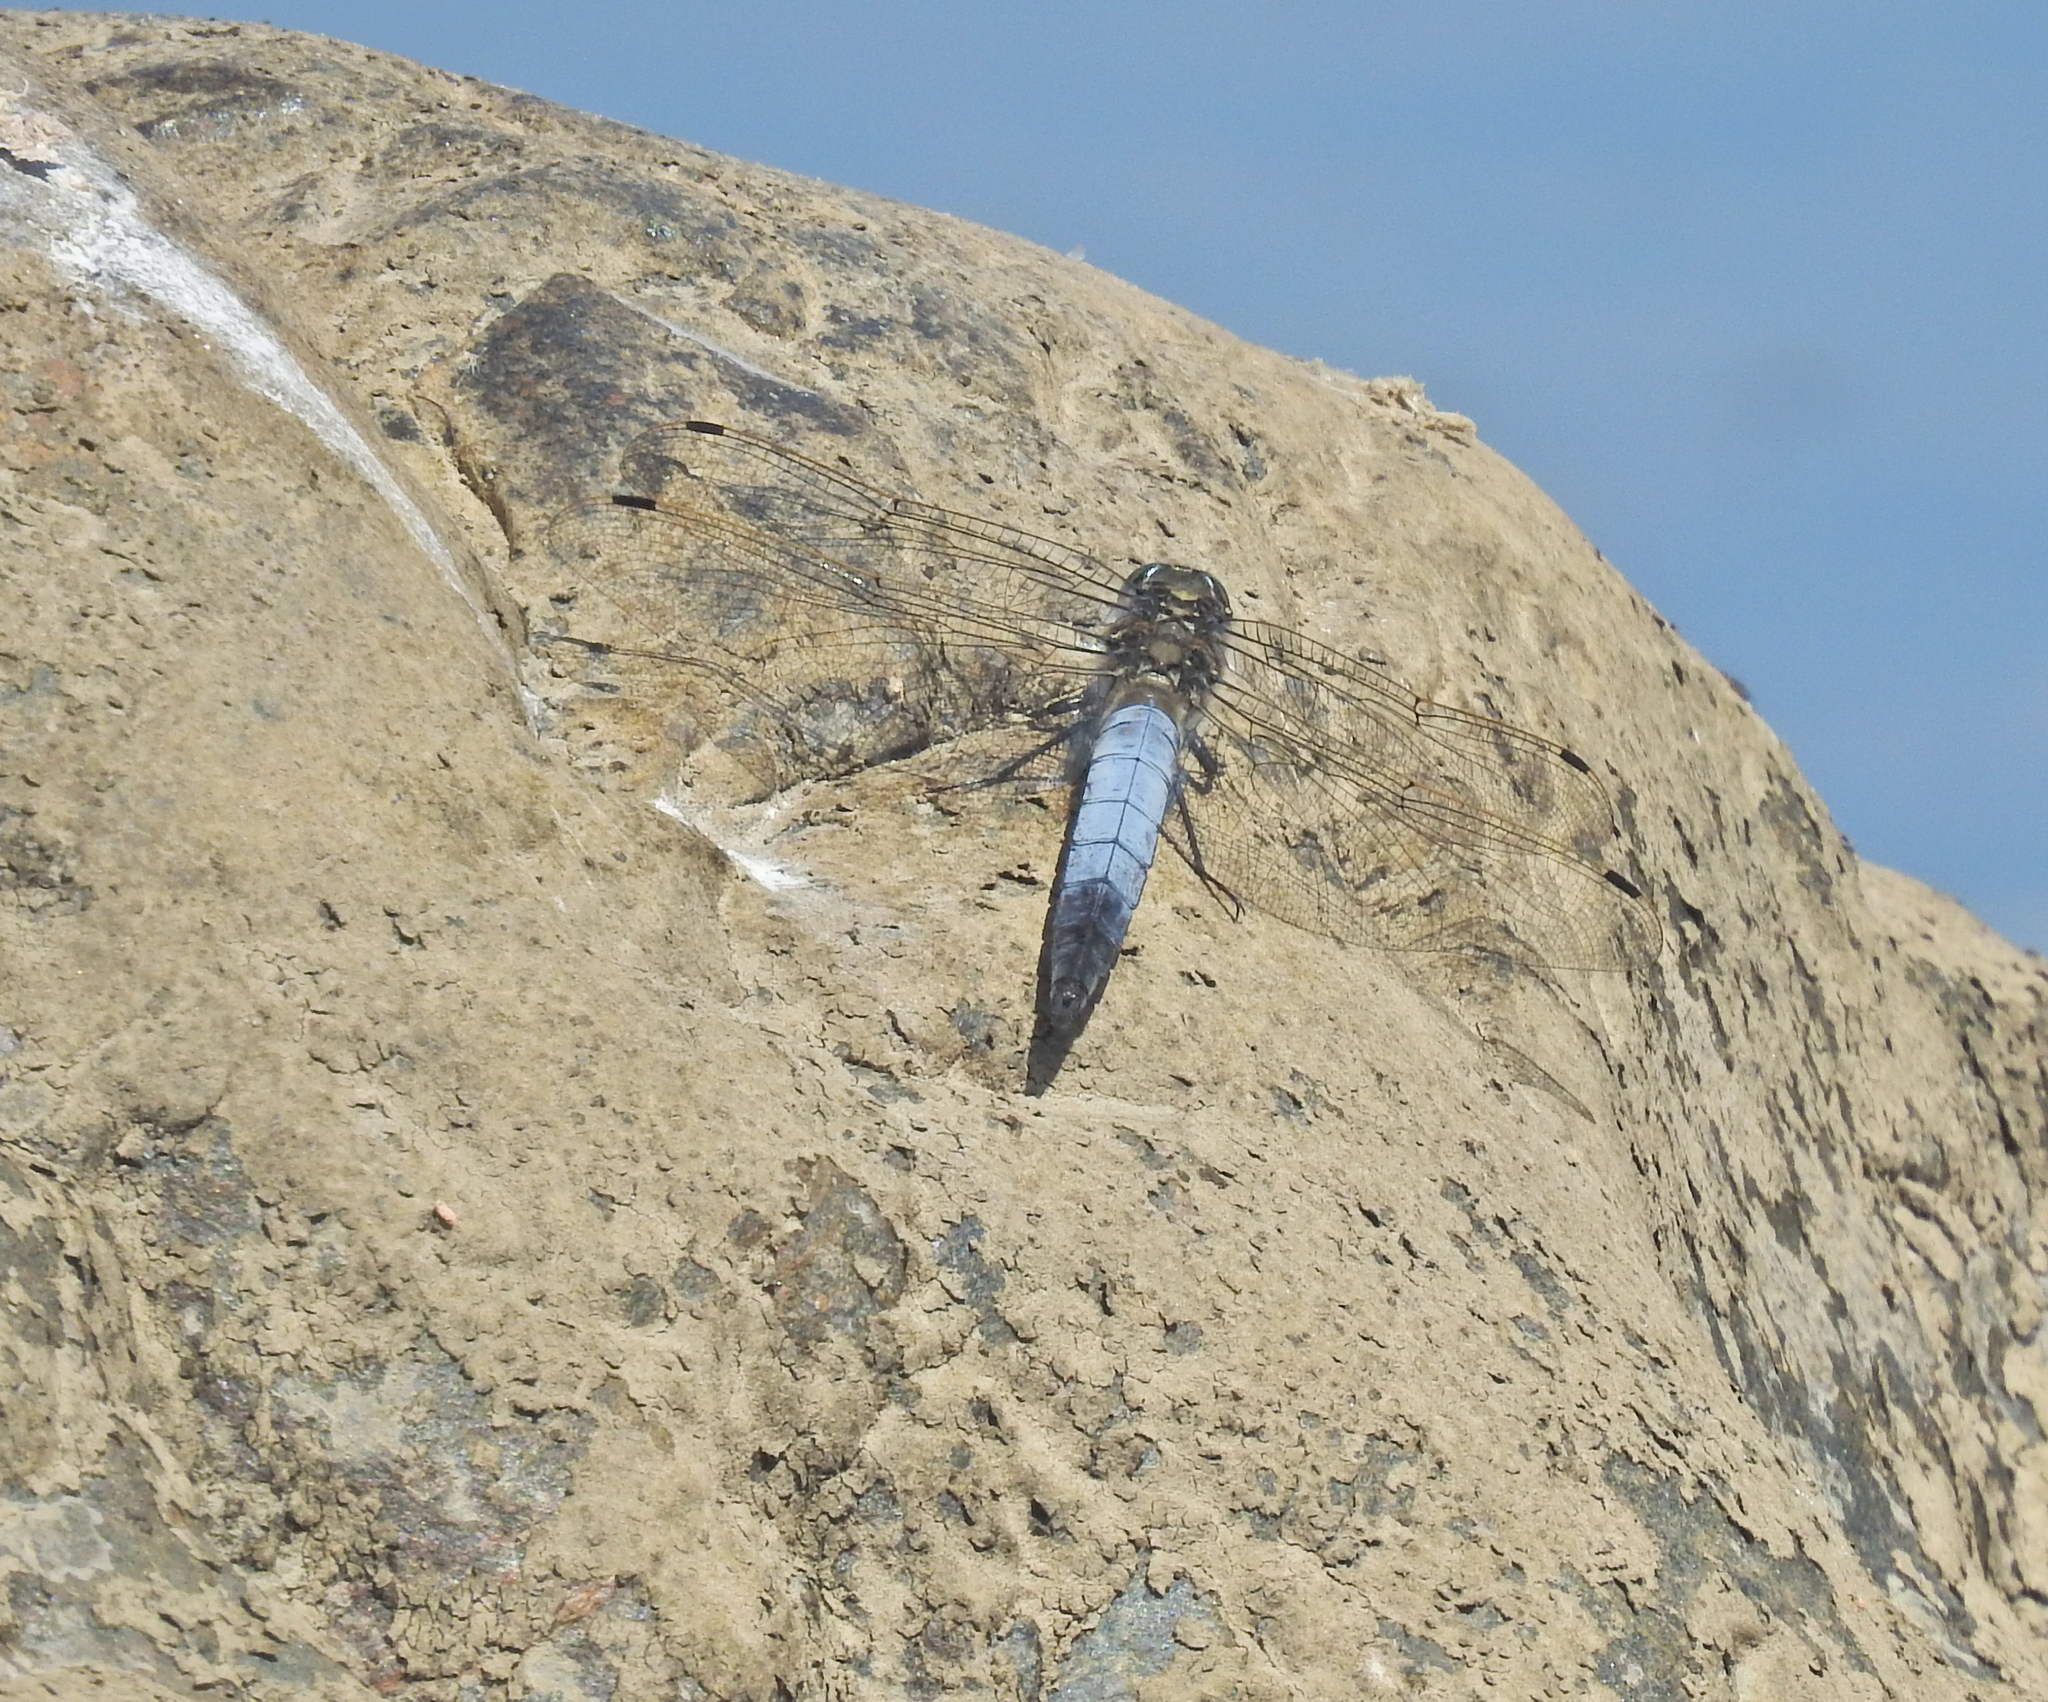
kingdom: Animalia
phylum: Arthropoda
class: Insecta
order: Odonata
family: Libellulidae
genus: Orthetrum
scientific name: Orthetrum cancellatum
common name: Black-tailed skimmer
